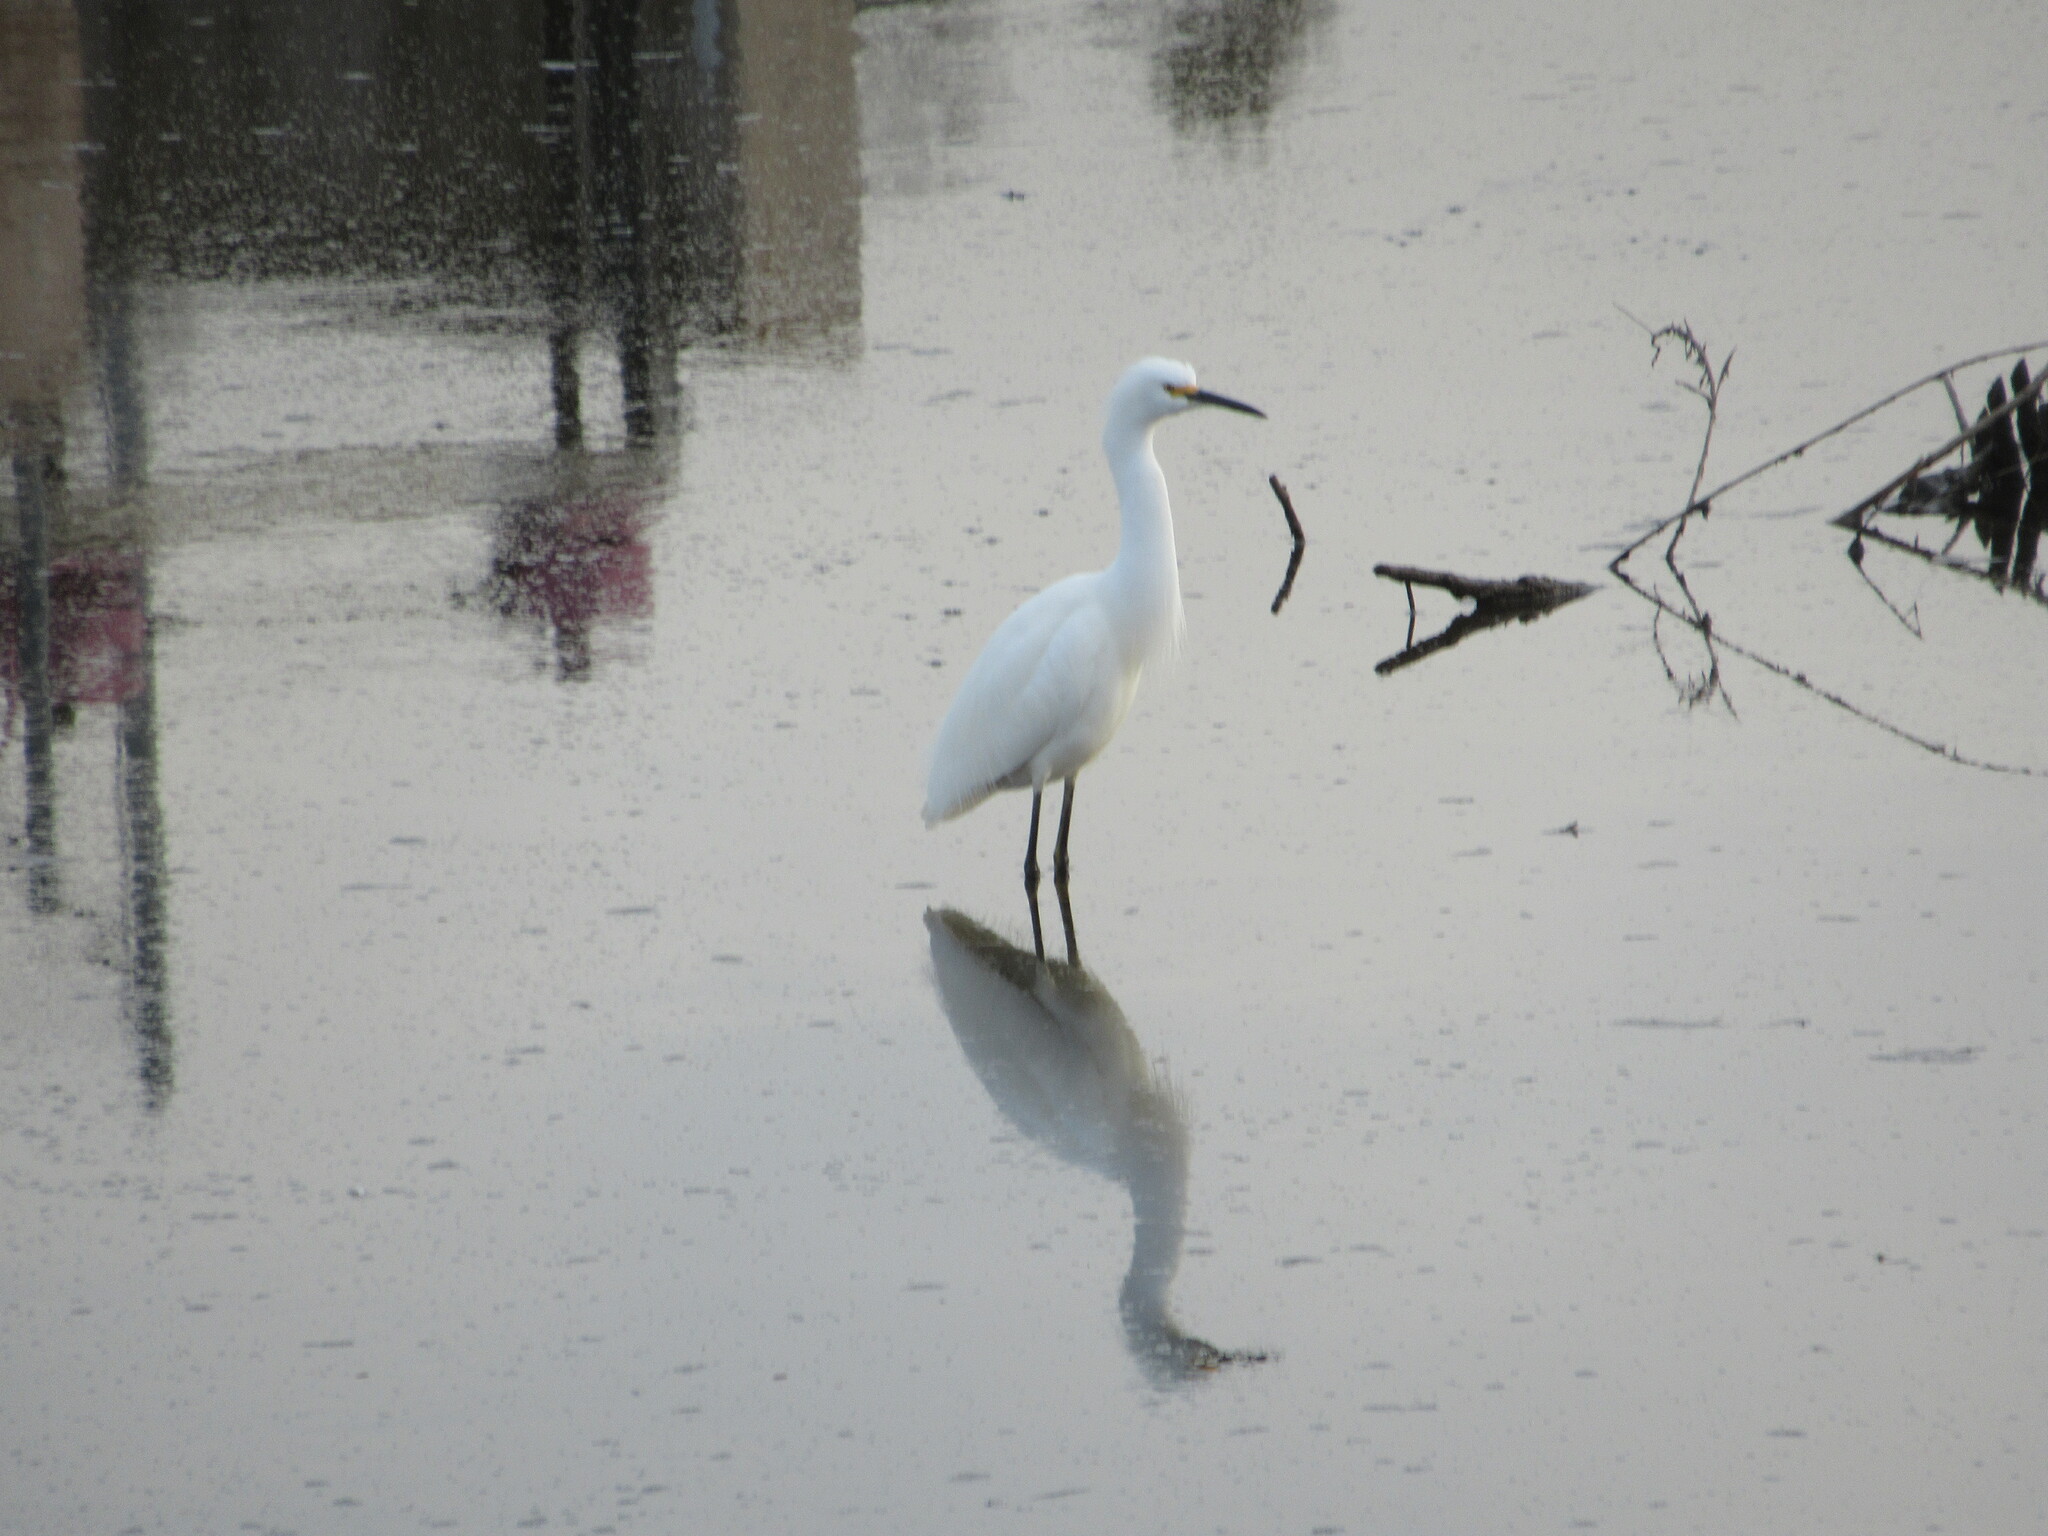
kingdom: Animalia
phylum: Chordata
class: Aves
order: Pelecaniformes
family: Ardeidae
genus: Egretta
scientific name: Egretta thula
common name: Snowy egret
